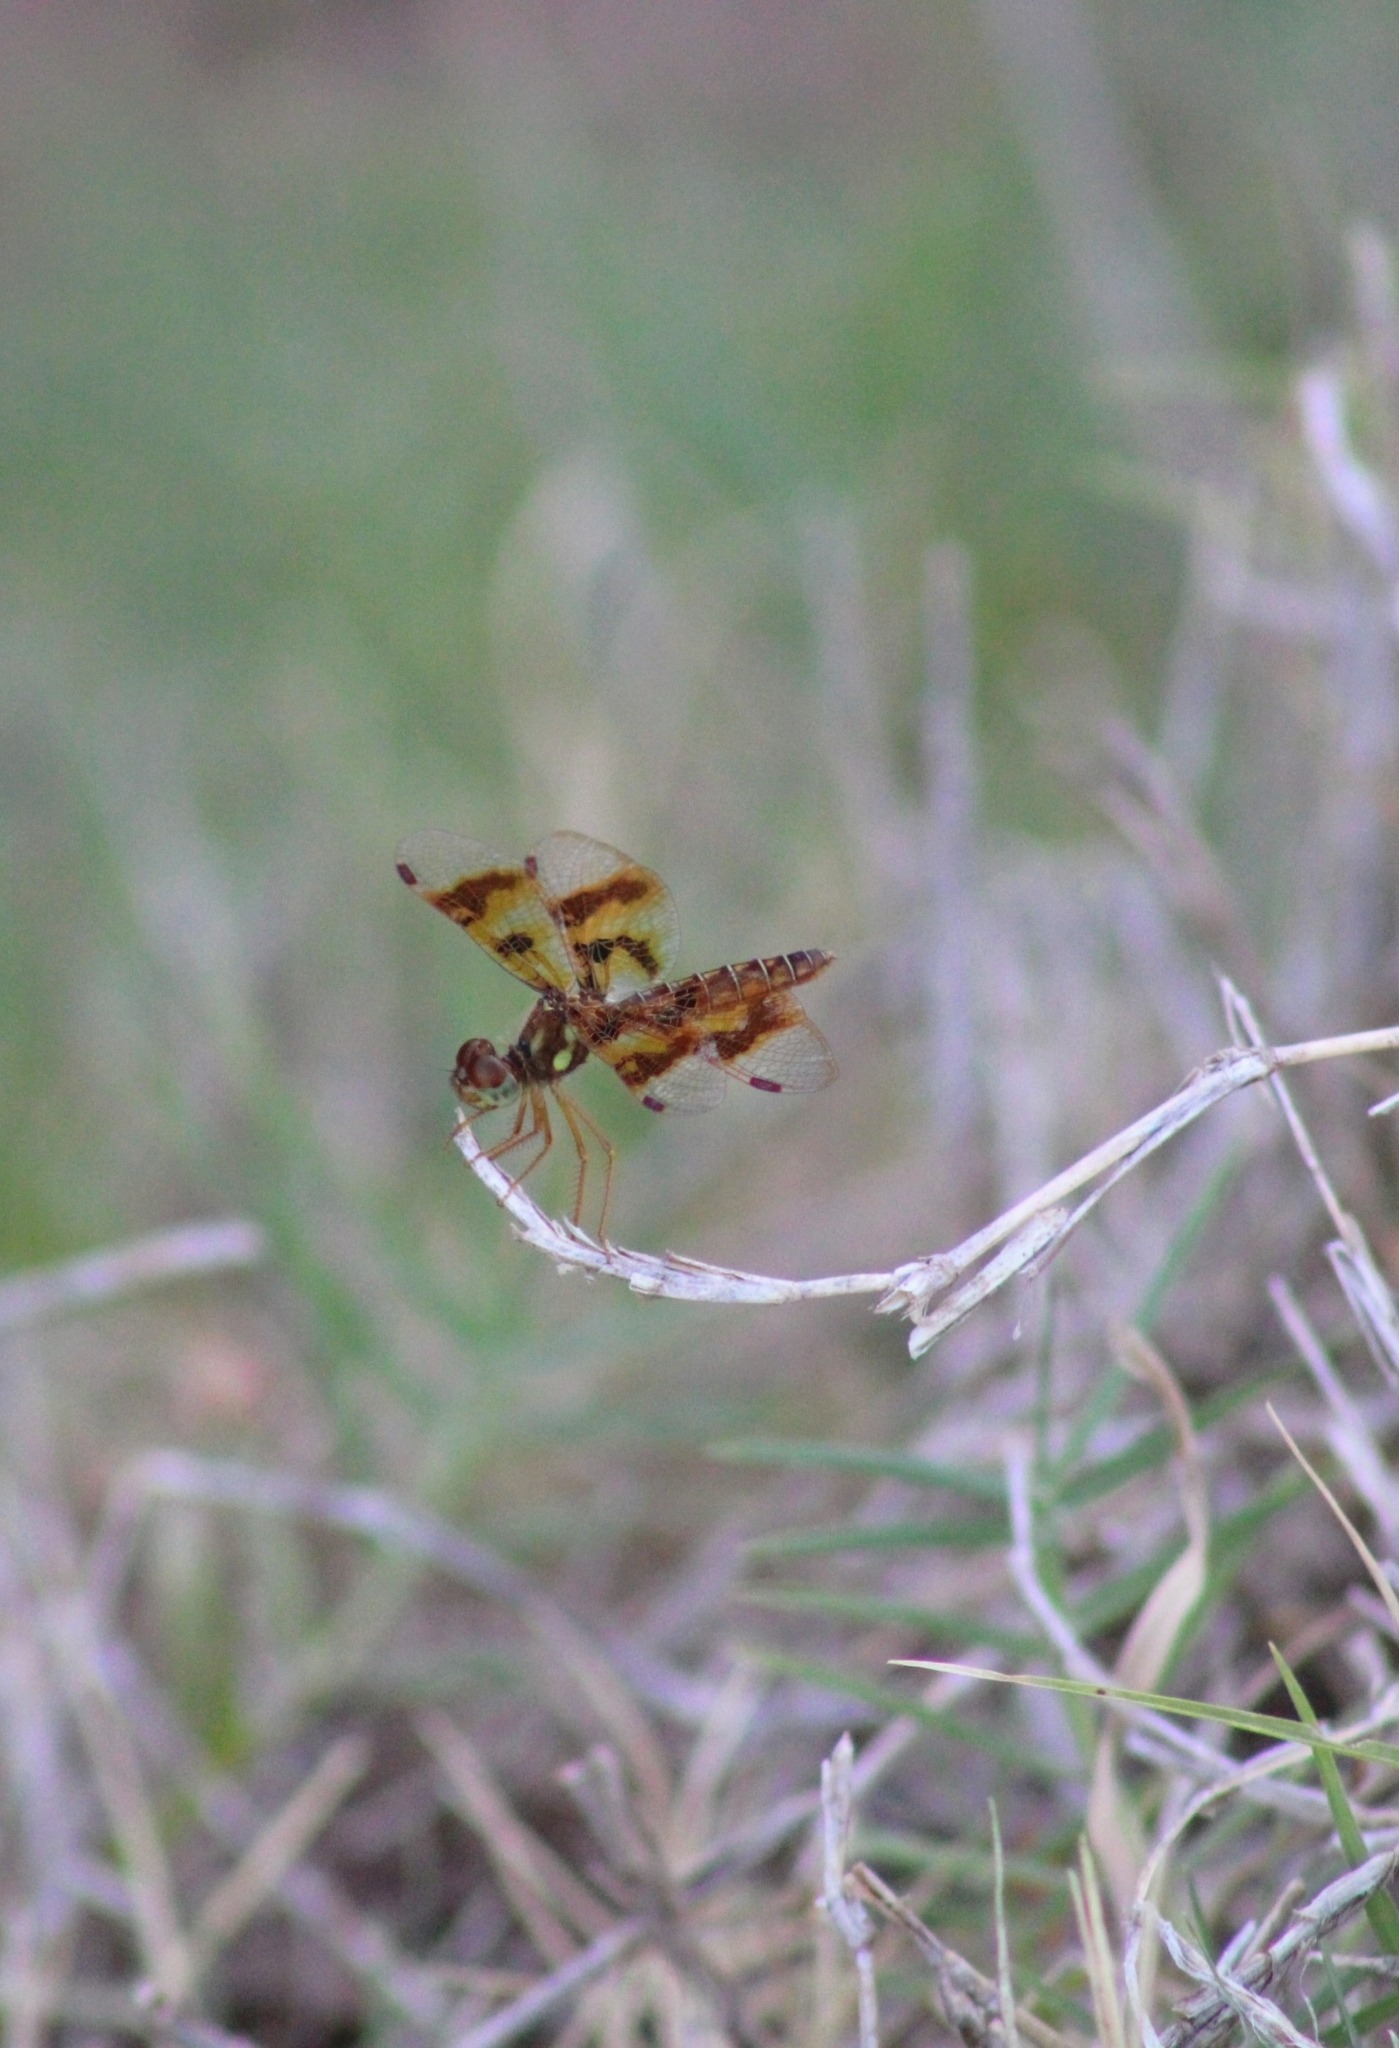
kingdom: Animalia
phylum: Arthropoda
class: Insecta
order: Odonata
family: Libellulidae
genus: Perithemis
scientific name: Perithemis tenera
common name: Eastern amberwing
